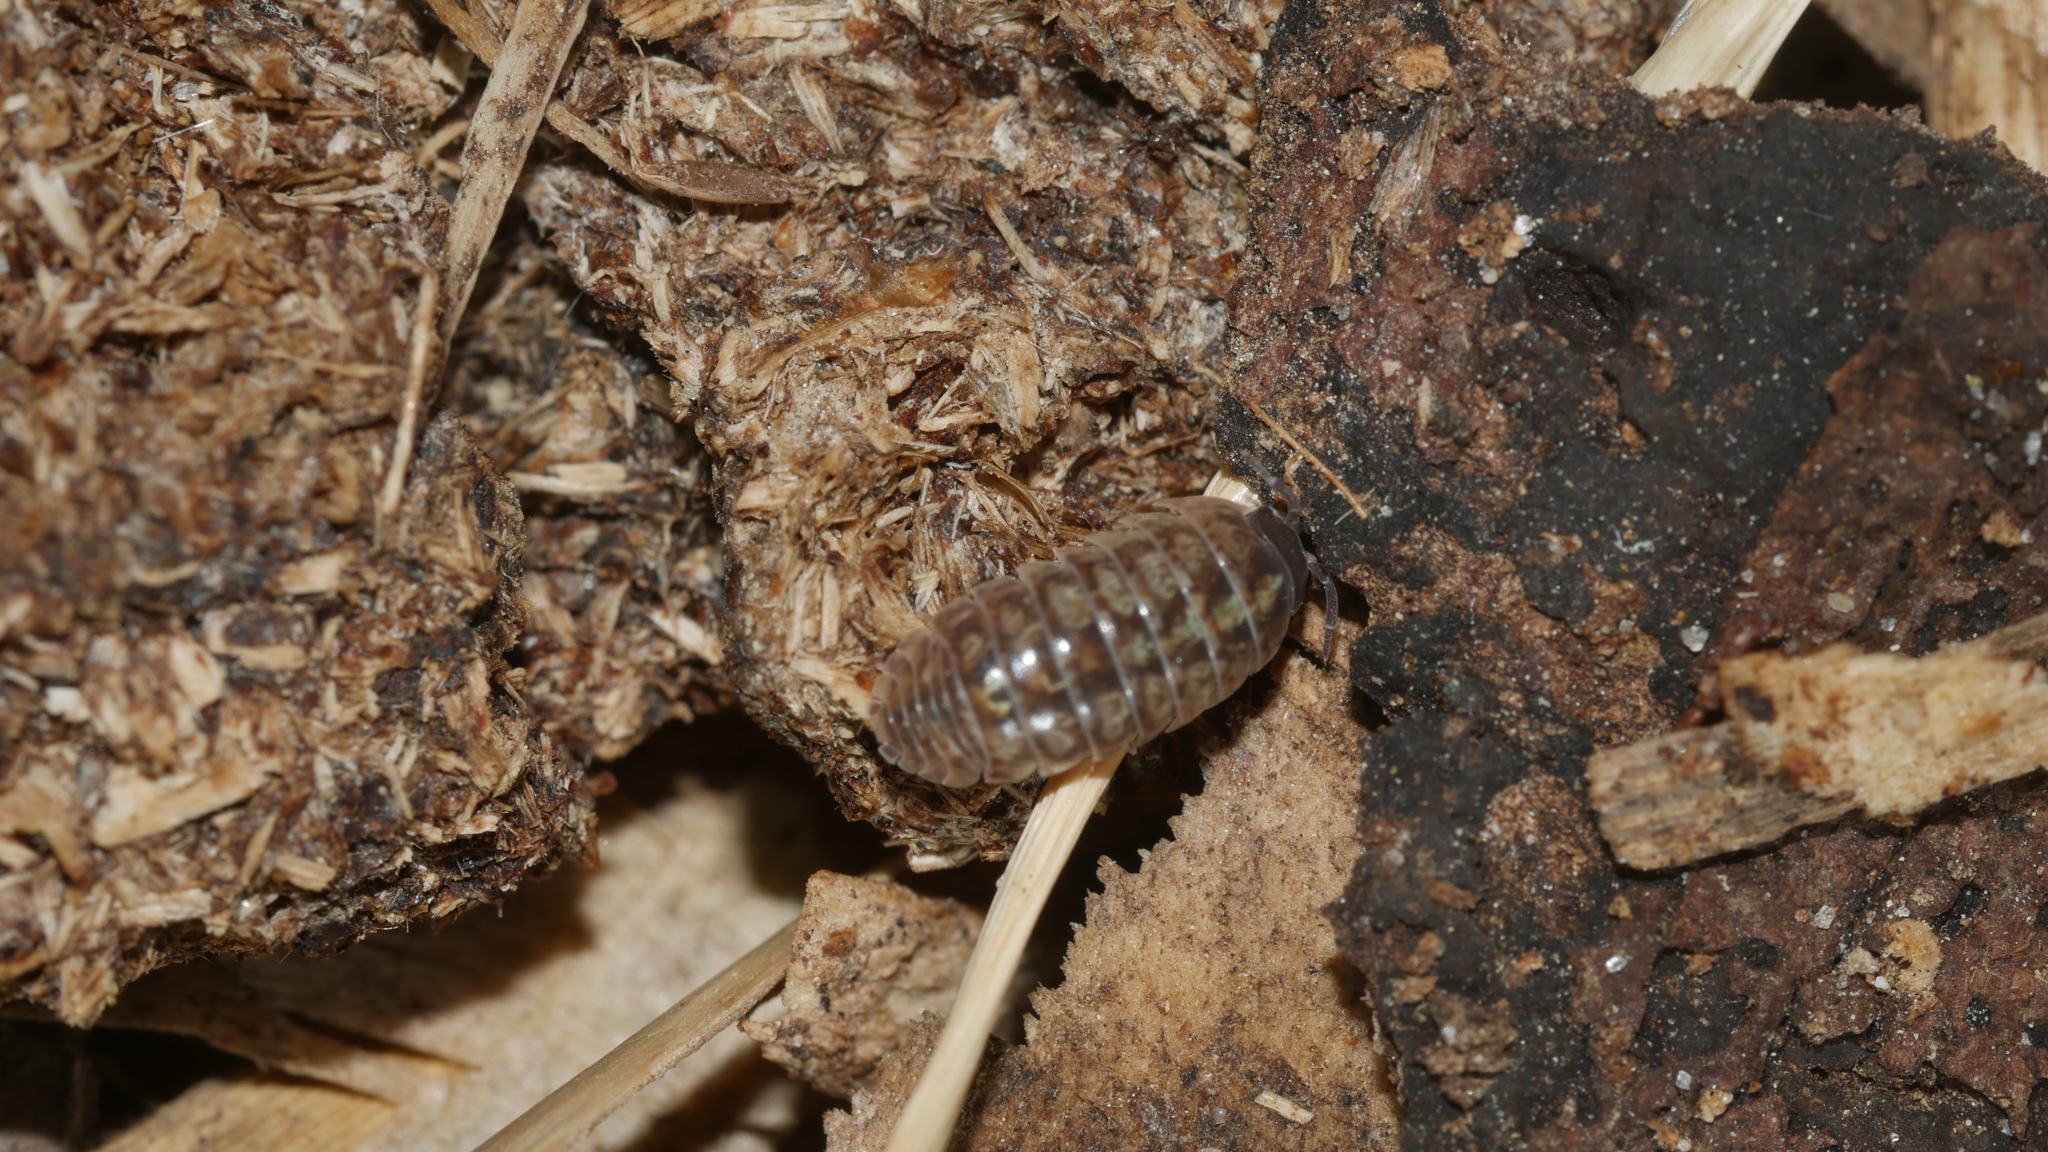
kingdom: Animalia
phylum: Arthropoda
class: Malacostraca
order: Isopoda
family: Armadillidiidae
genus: Armadillidium
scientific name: Armadillidium vulgare
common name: Common pill woodlouse
